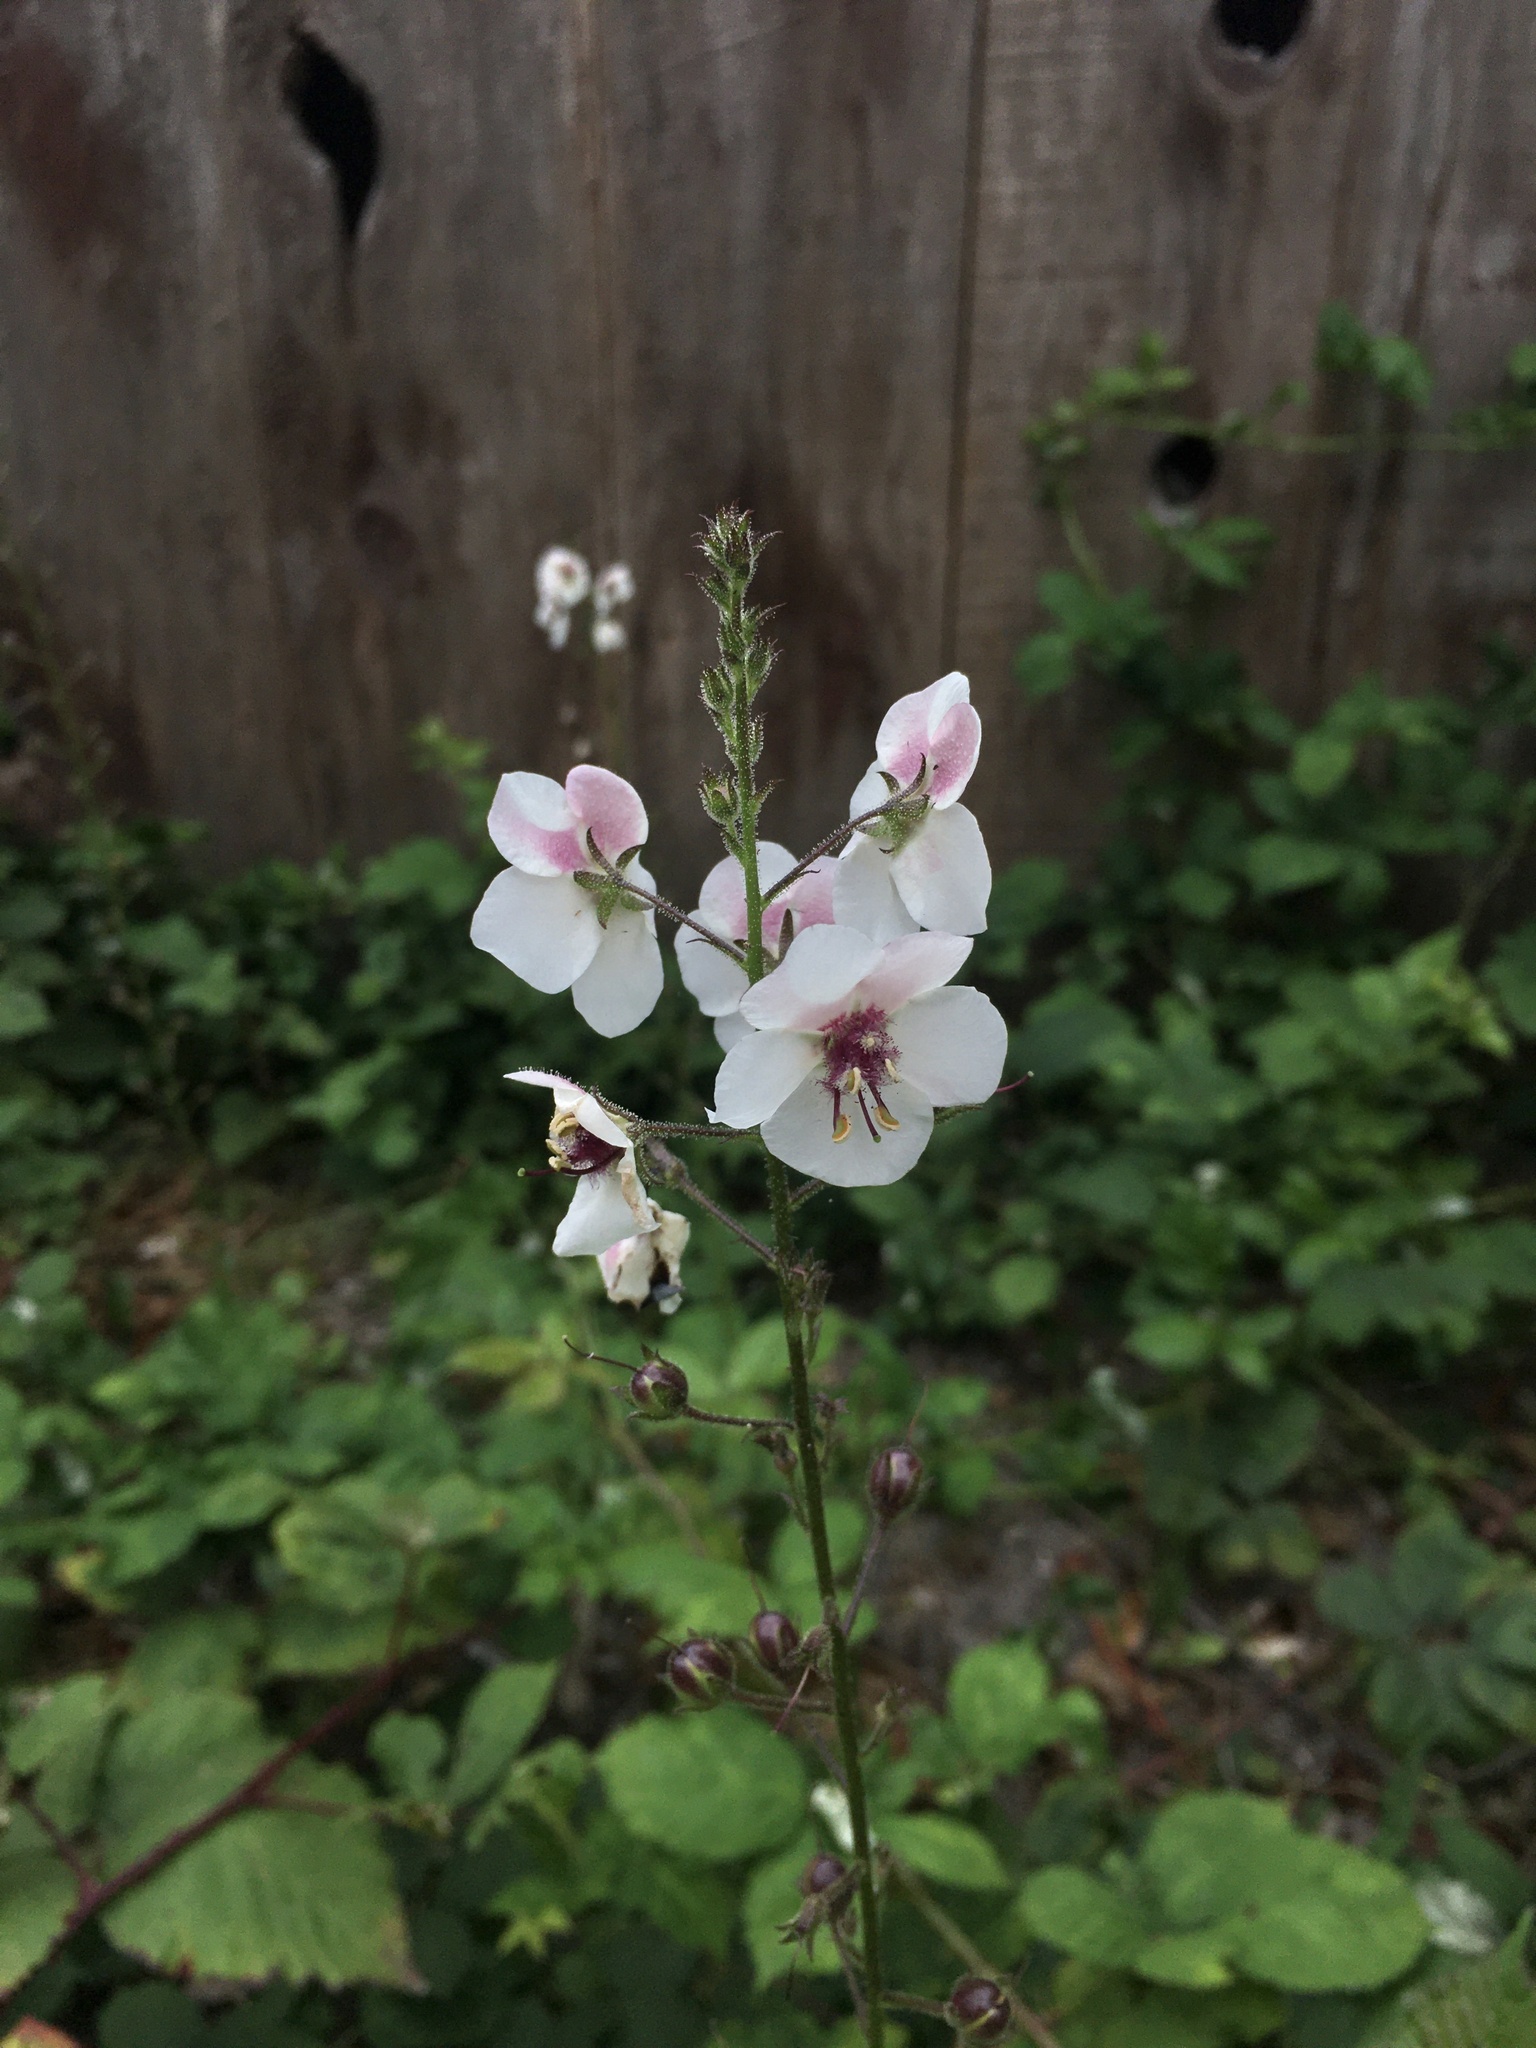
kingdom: Plantae
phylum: Tracheophyta
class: Magnoliopsida
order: Lamiales
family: Scrophulariaceae
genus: Verbascum
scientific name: Verbascum blattaria
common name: Moth mullein
